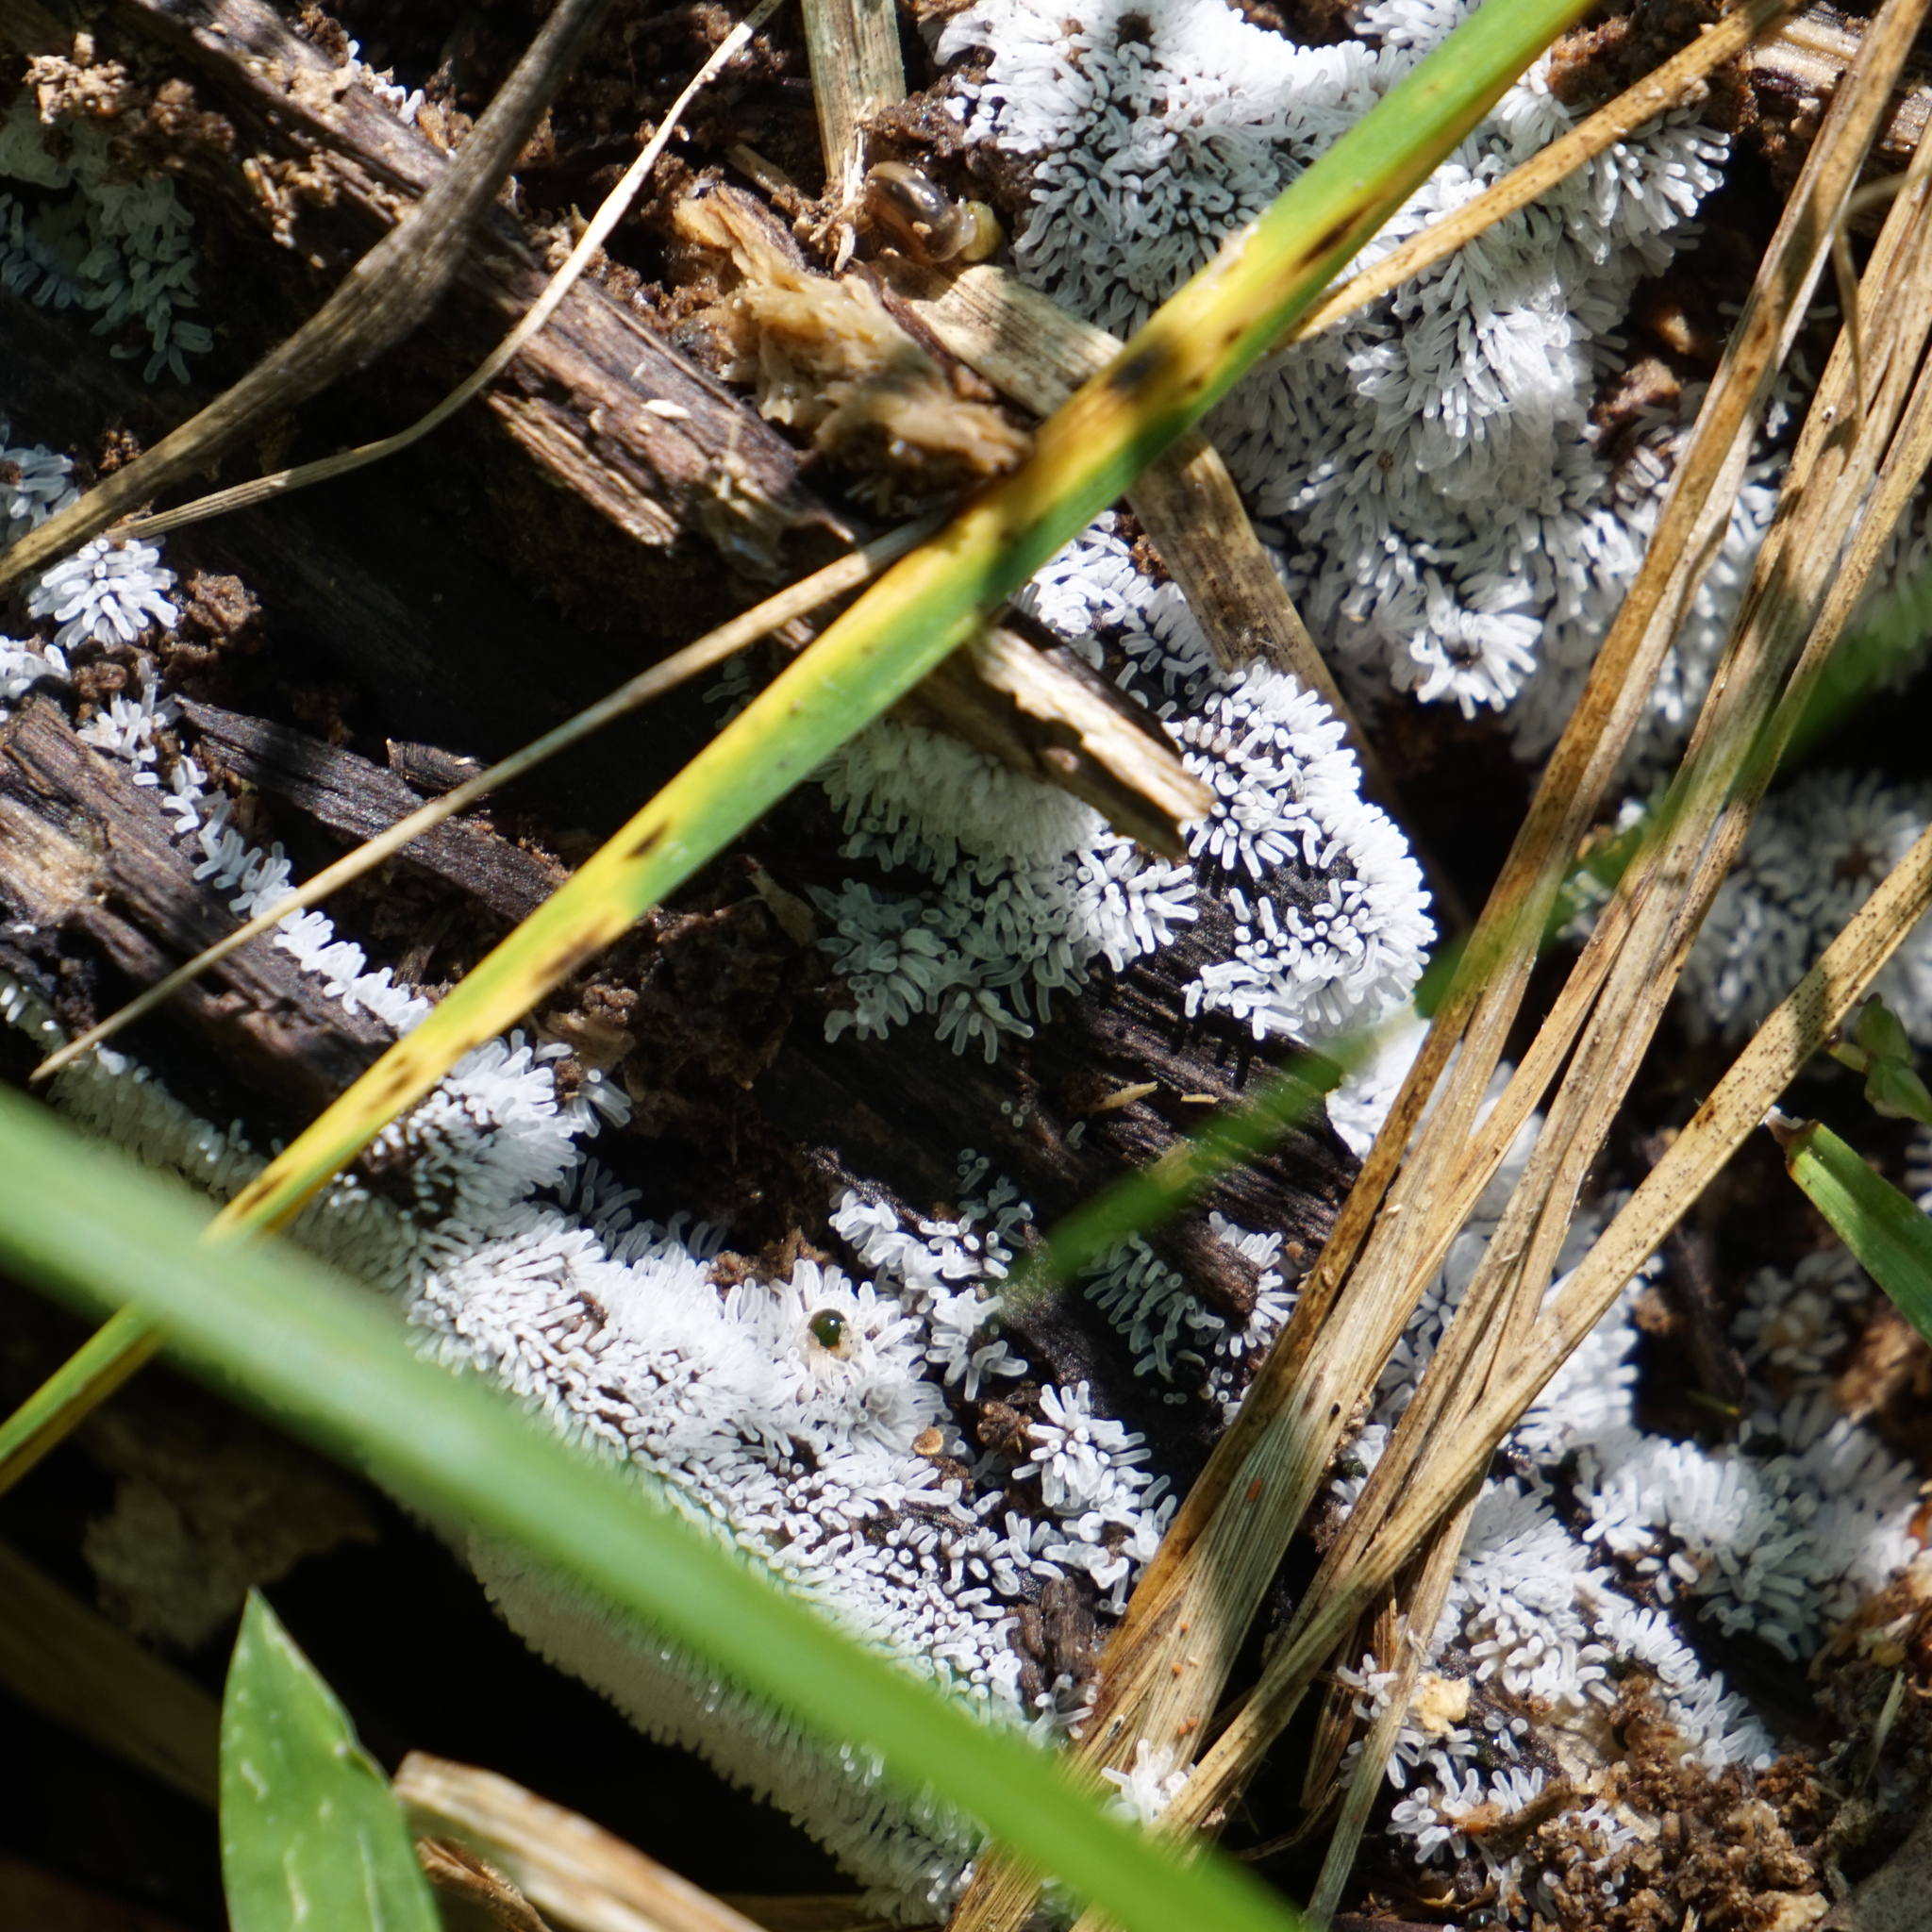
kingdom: Protozoa
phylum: Mycetozoa
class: Protosteliomycetes
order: Ceratiomyxales
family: Ceratiomyxaceae
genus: Ceratiomyxa
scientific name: Ceratiomyxa fruticulosa
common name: Honeycomb coral slime mold
